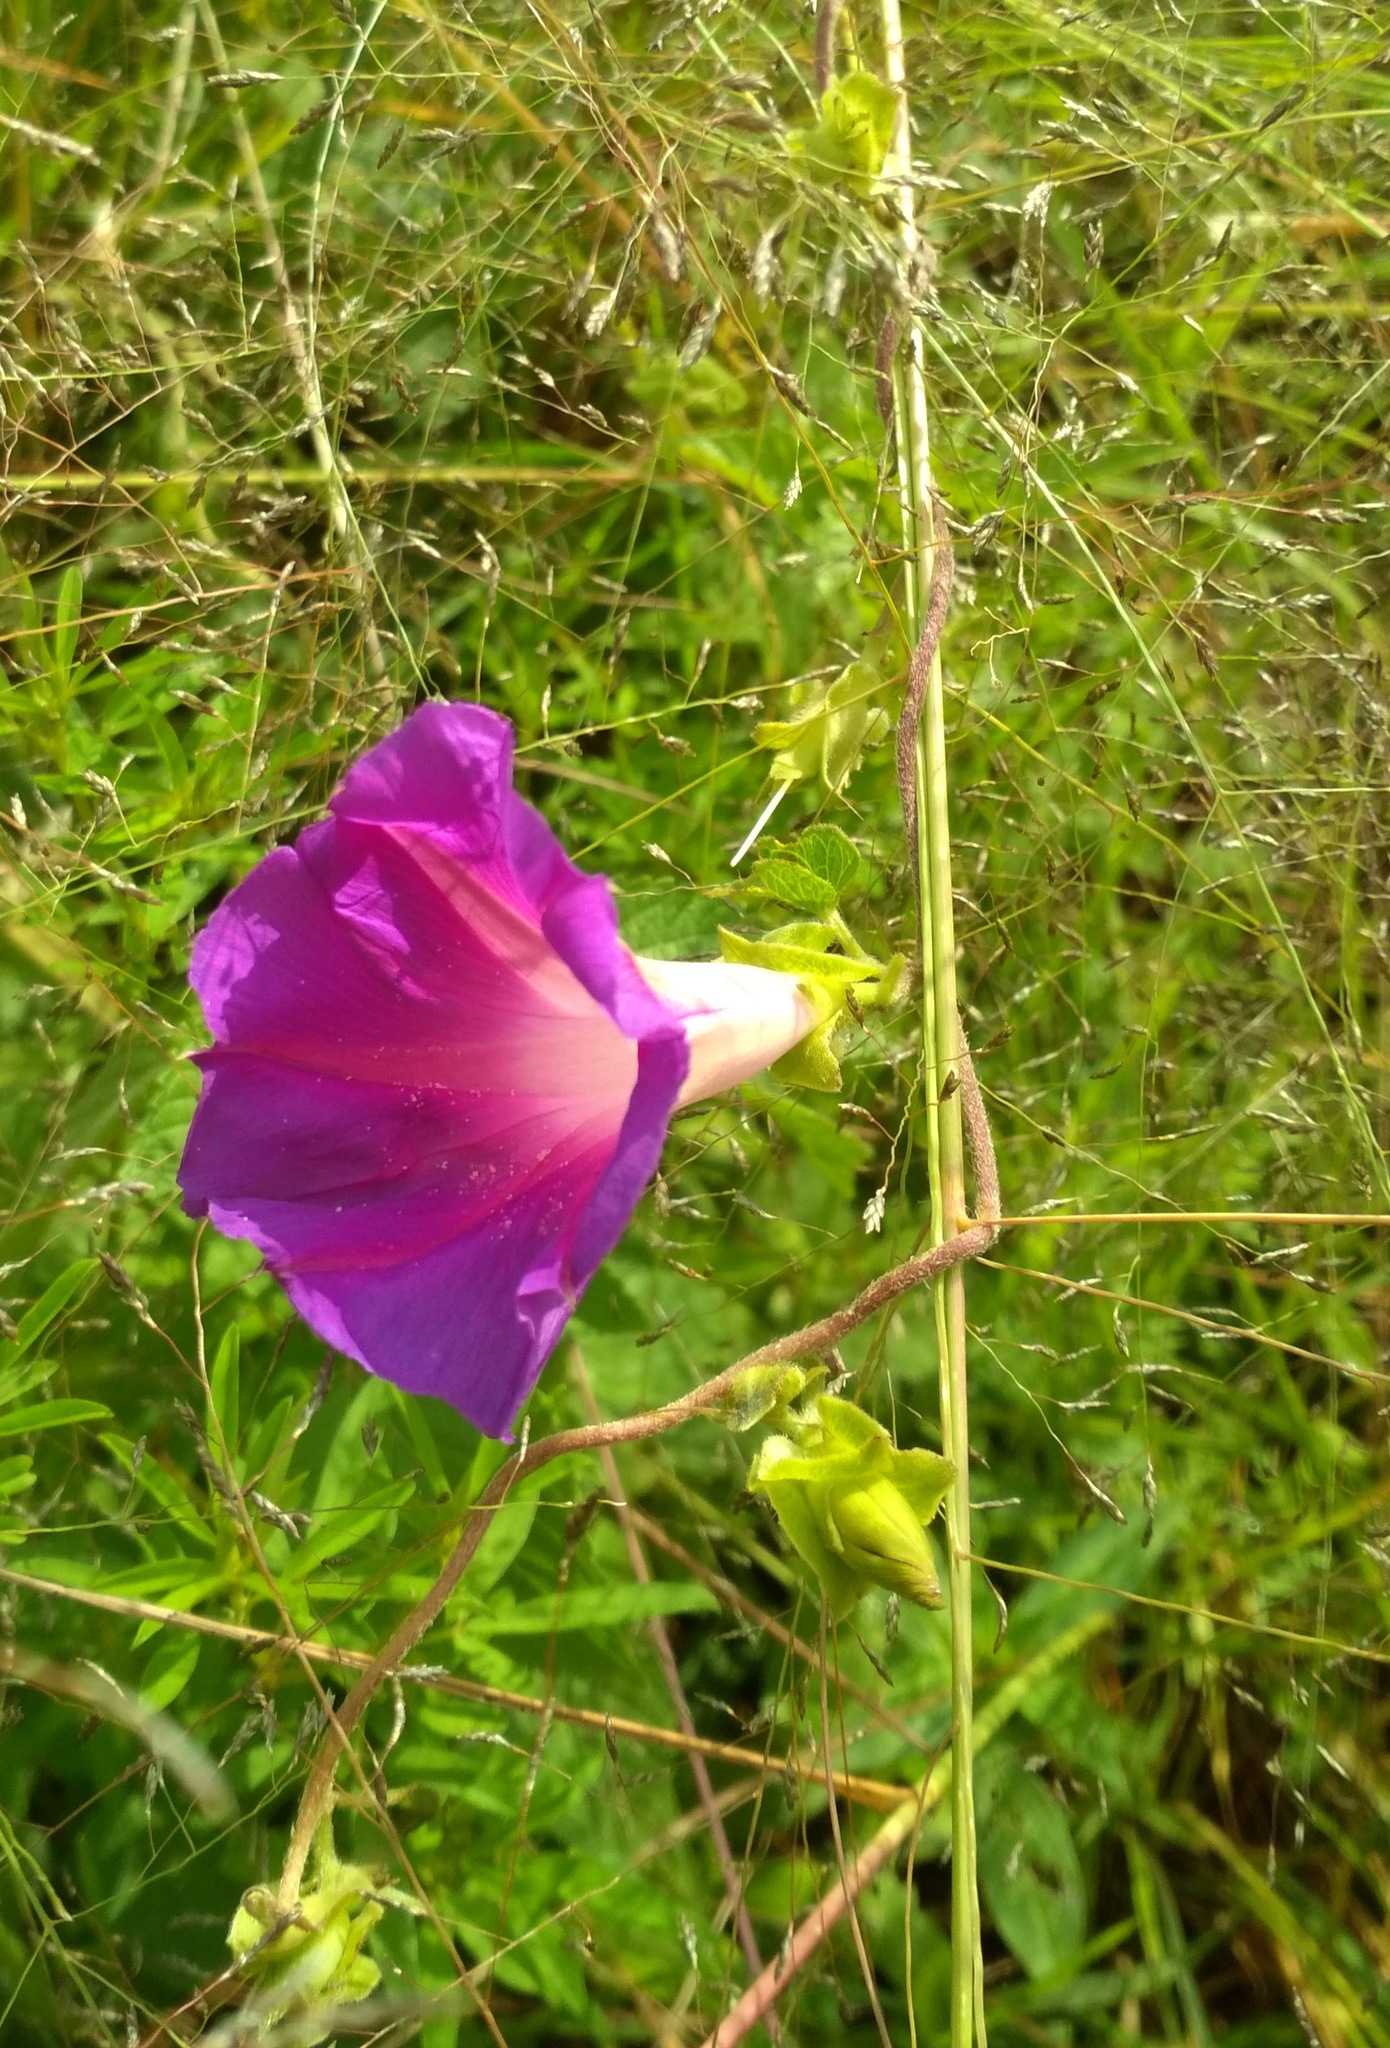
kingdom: Plantae
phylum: Tracheophyta
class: Magnoliopsida
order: Solanales
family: Convolvulaceae
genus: Ipomoea
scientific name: Ipomoea decasperma
